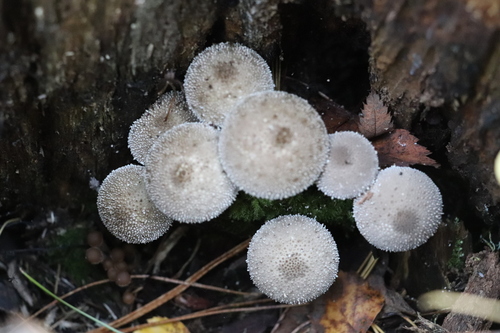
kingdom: Fungi
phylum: Basidiomycota
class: Agaricomycetes
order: Agaricales
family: Lycoperdaceae
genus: Lycoperdon
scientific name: Lycoperdon perlatum
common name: Common puffball
